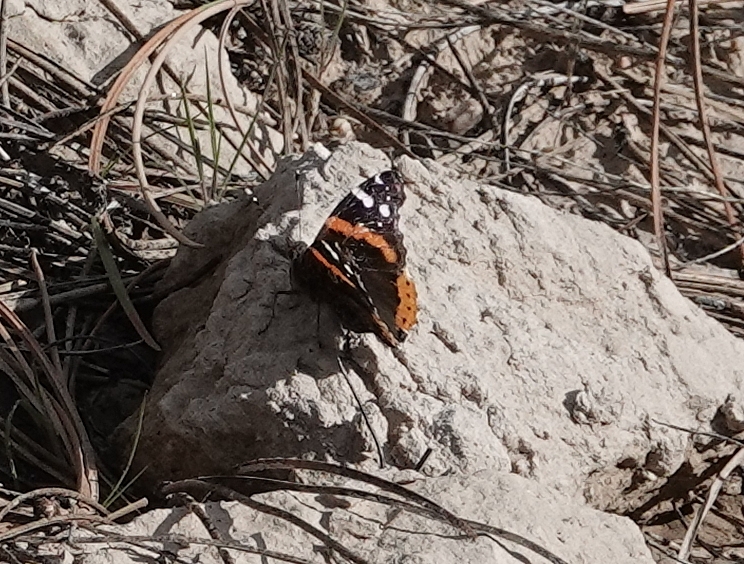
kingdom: Animalia
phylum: Arthropoda
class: Insecta
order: Lepidoptera
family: Nymphalidae
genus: Vanessa
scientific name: Vanessa atalanta
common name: Red admiral
